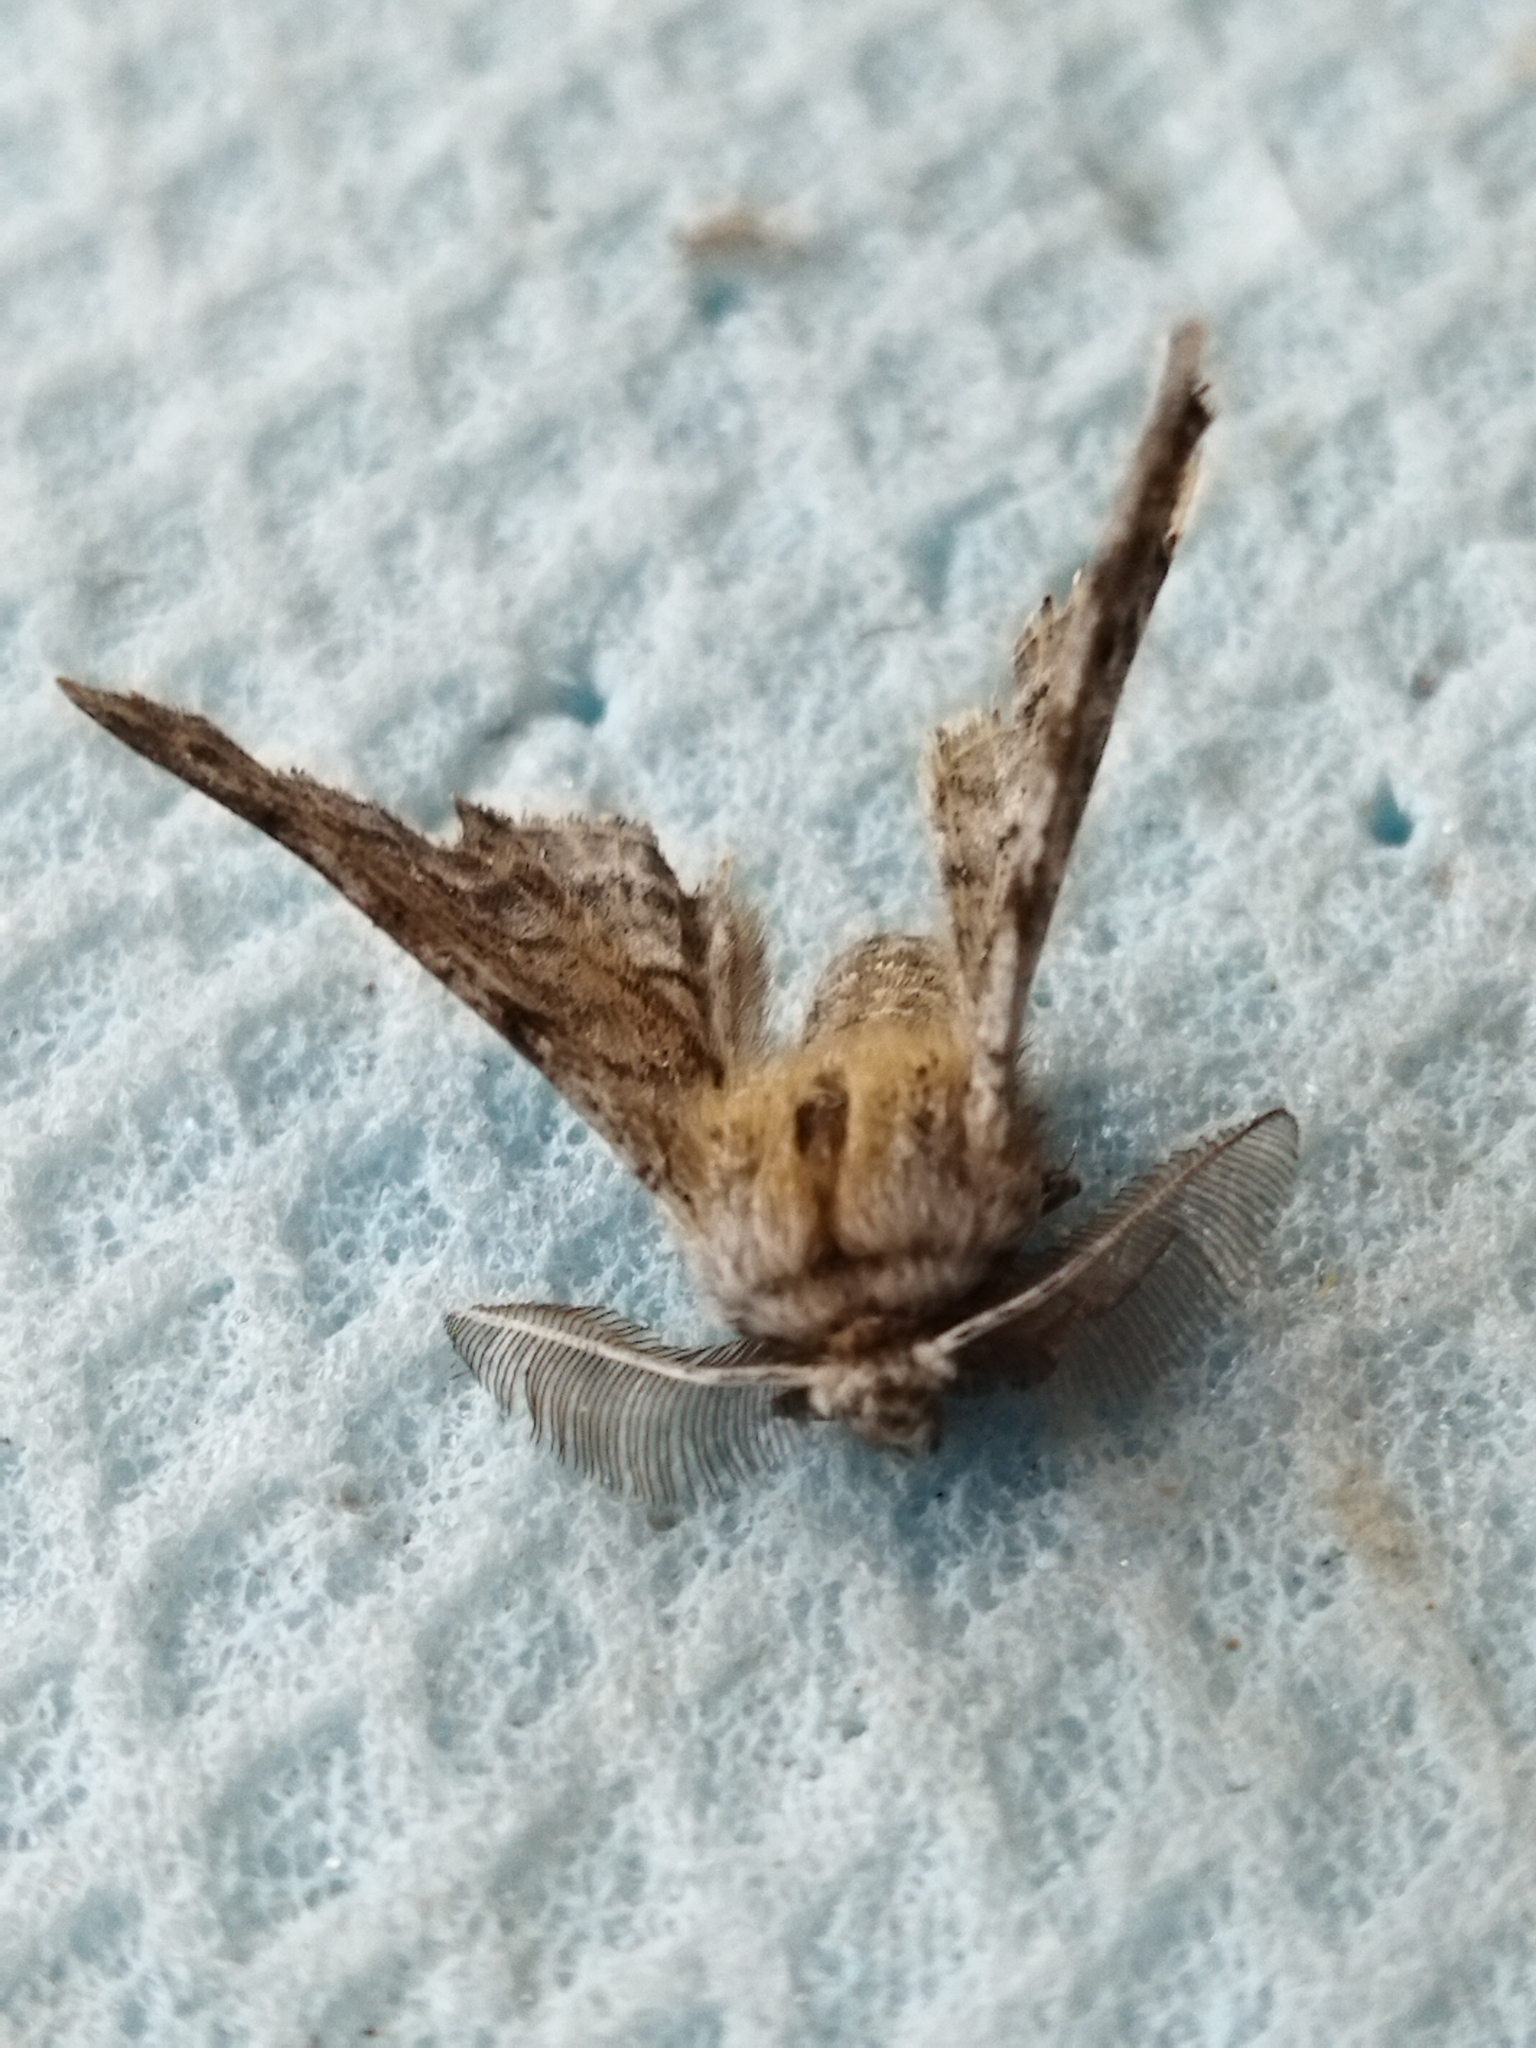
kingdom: Animalia
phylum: Arthropoda
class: Insecta
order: Lepidoptera
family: Geometridae
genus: Apochima
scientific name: Apochima flabellaria
